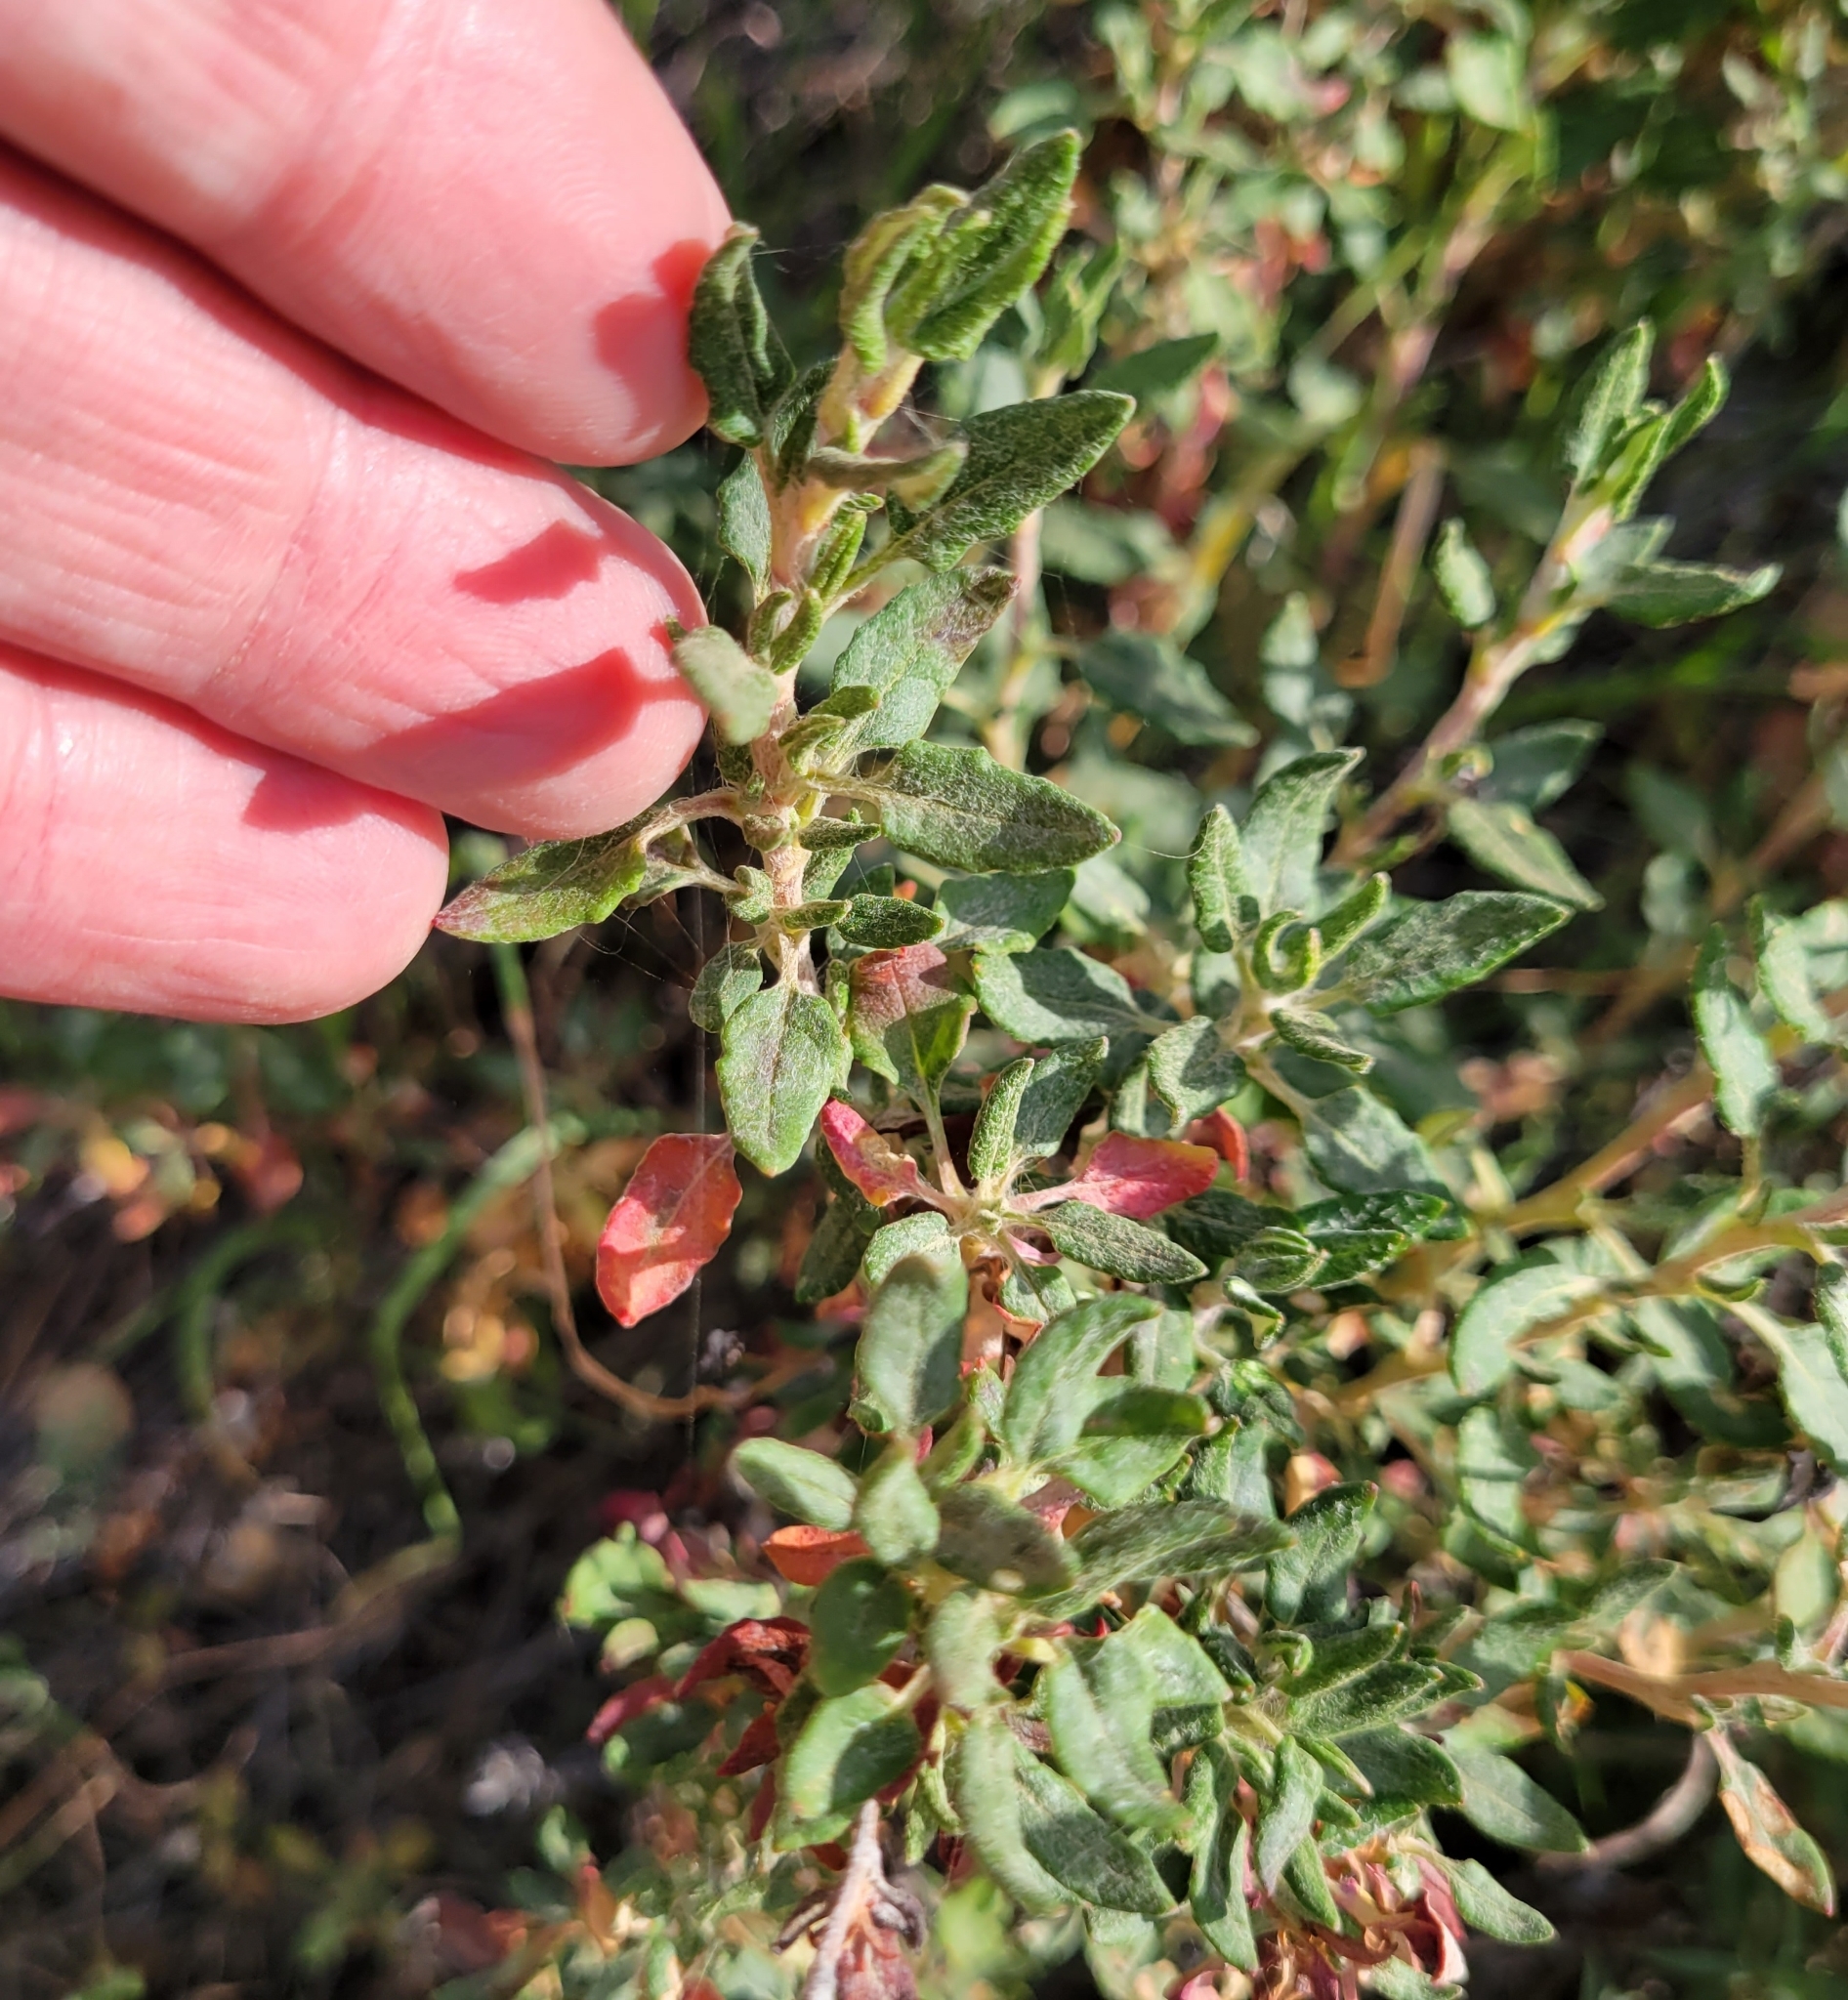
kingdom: Plantae
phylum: Tracheophyta
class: Magnoliopsida
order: Caryophyllales
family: Polygonaceae
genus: Eriogonum
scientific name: Eriogonum parvifolium
